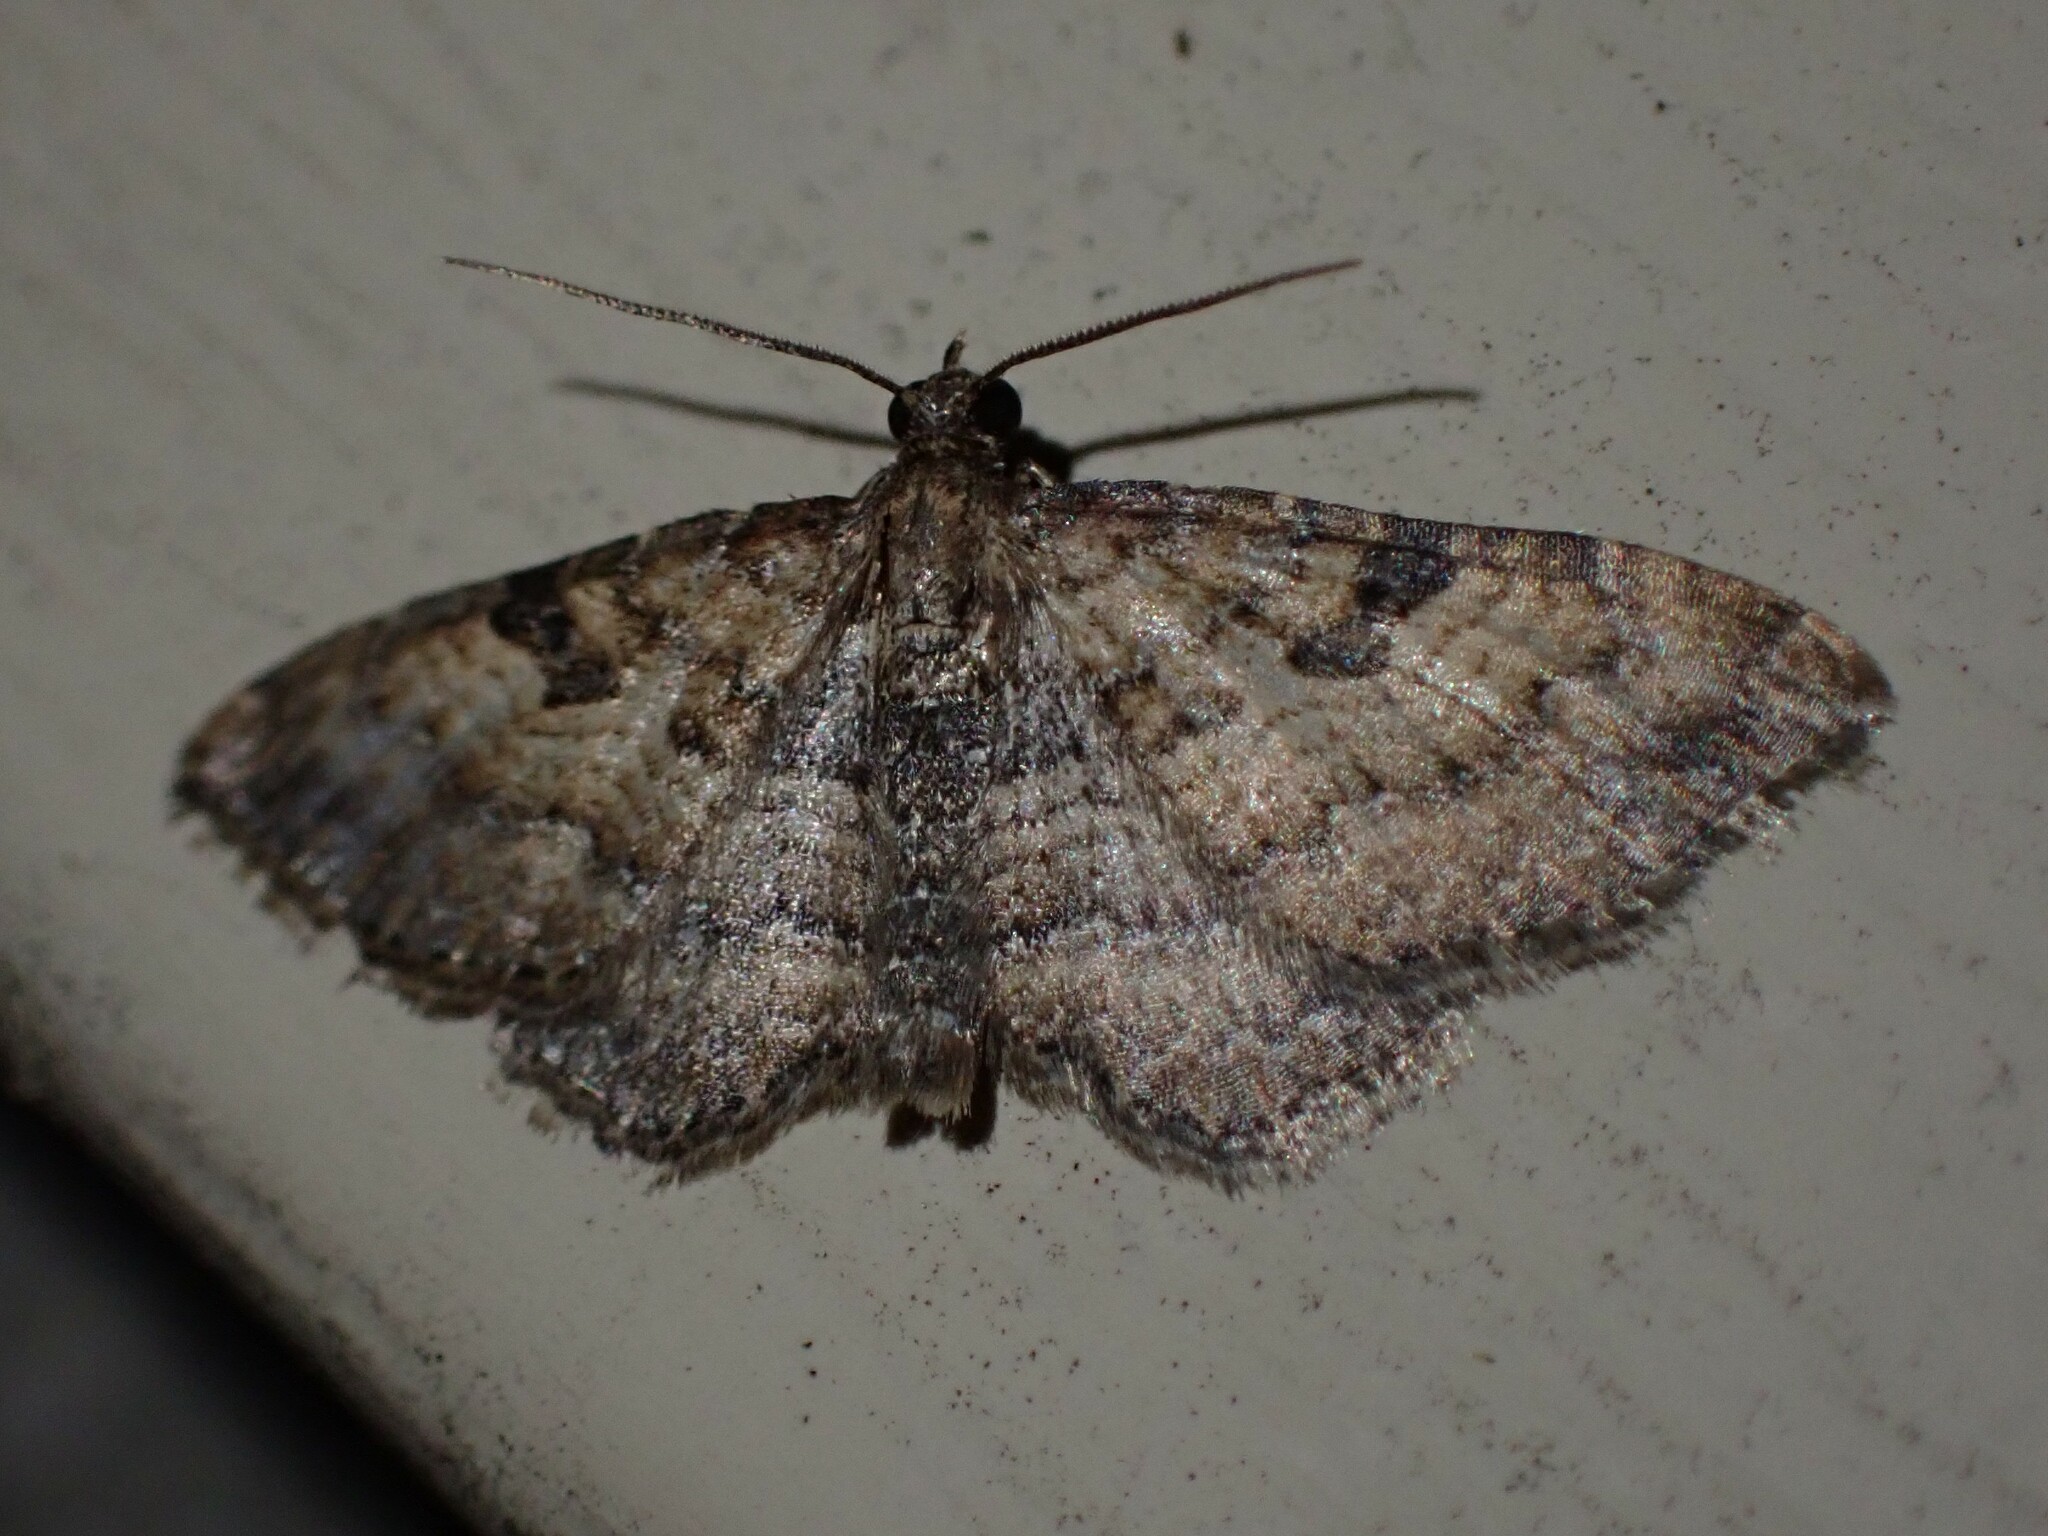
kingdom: Animalia
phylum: Arthropoda
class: Insecta
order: Lepidoptera
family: Geometridae
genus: Orthonama
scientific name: Orthonama obstipata
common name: The gem
